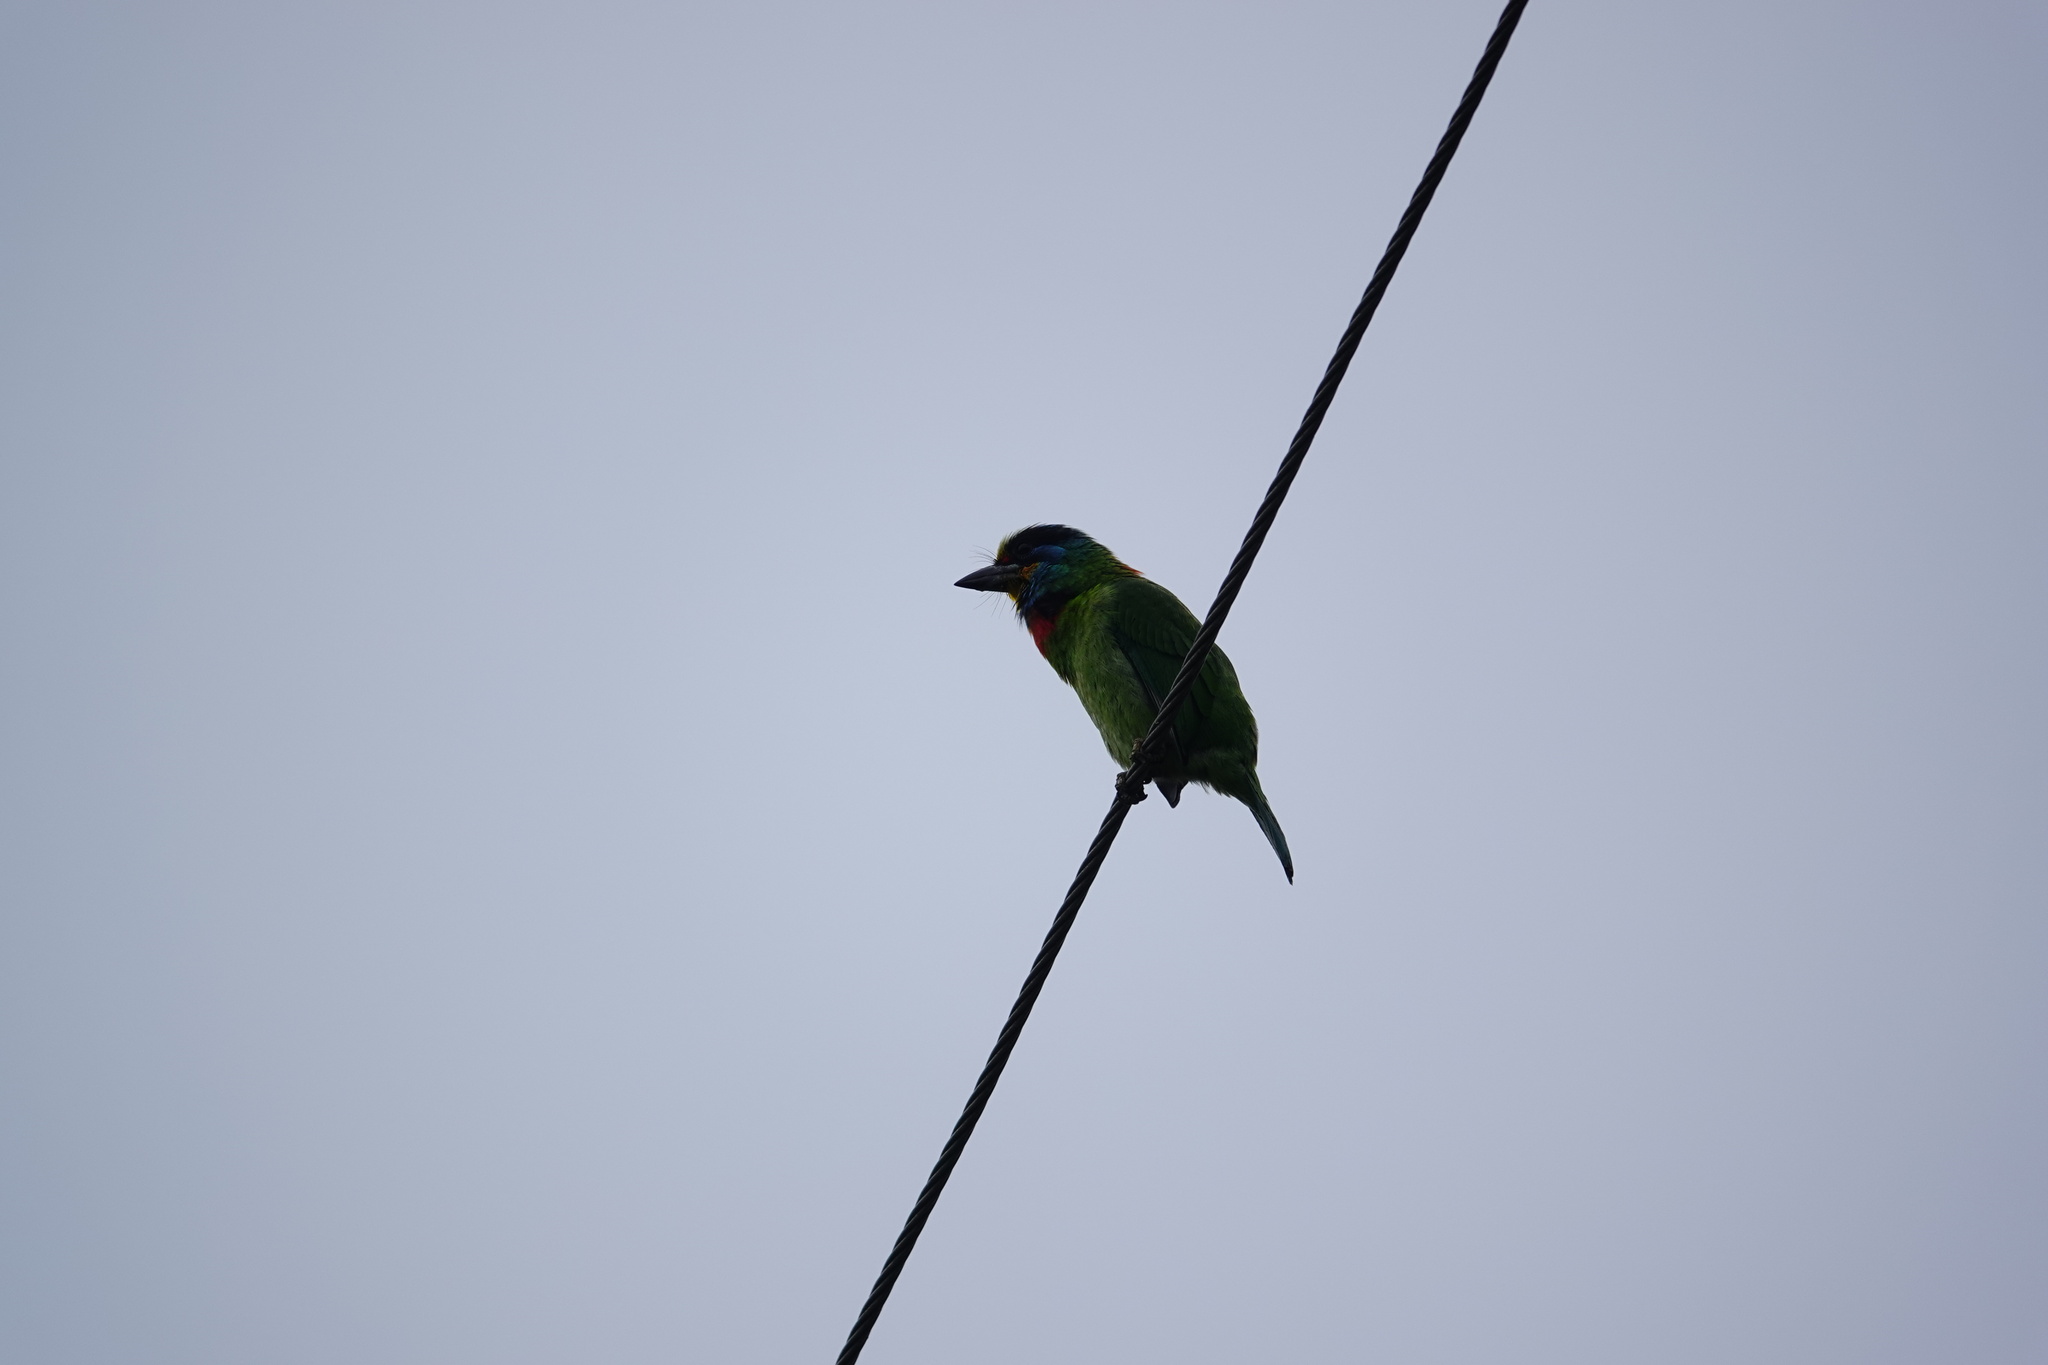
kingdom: Animalia
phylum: Chordata
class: Aves
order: Piciformes
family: Megalaimidae
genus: Psilopogon
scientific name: Psilopogon nuchalis
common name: Taiwan barbet
